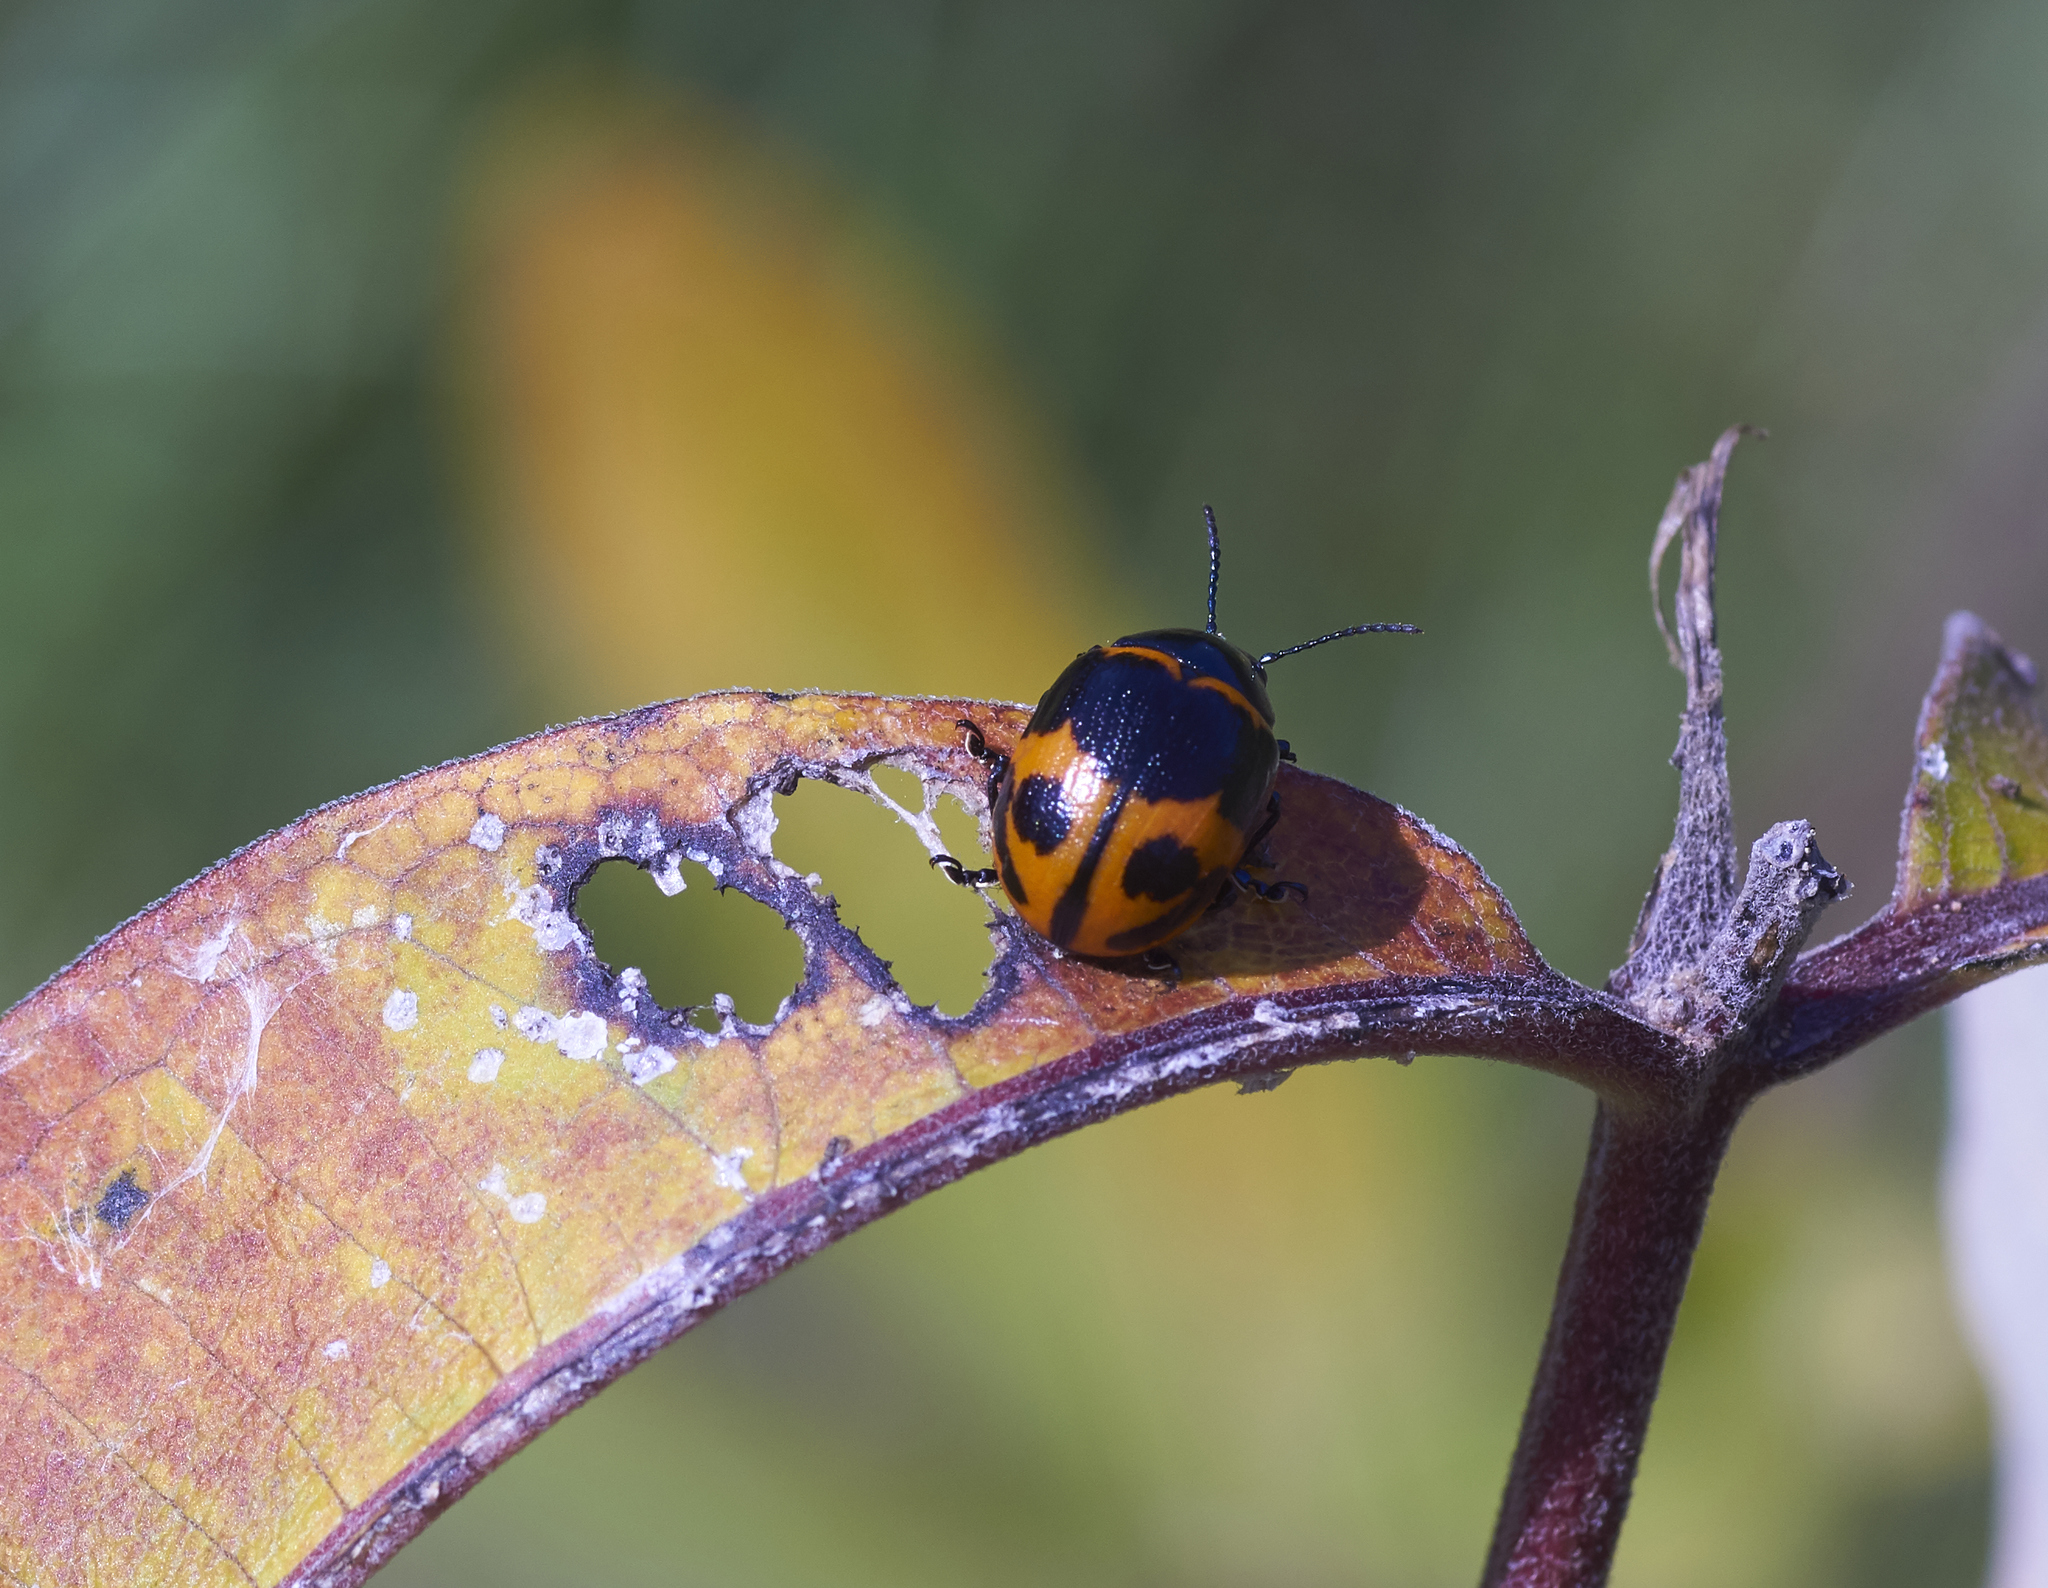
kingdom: Animalia
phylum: Arthropoda
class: Insecta
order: Coleoptera
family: Chrysomelidae
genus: Labidomera
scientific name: Labidomera clivicollis
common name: Swamp milkweed leaf beetle
